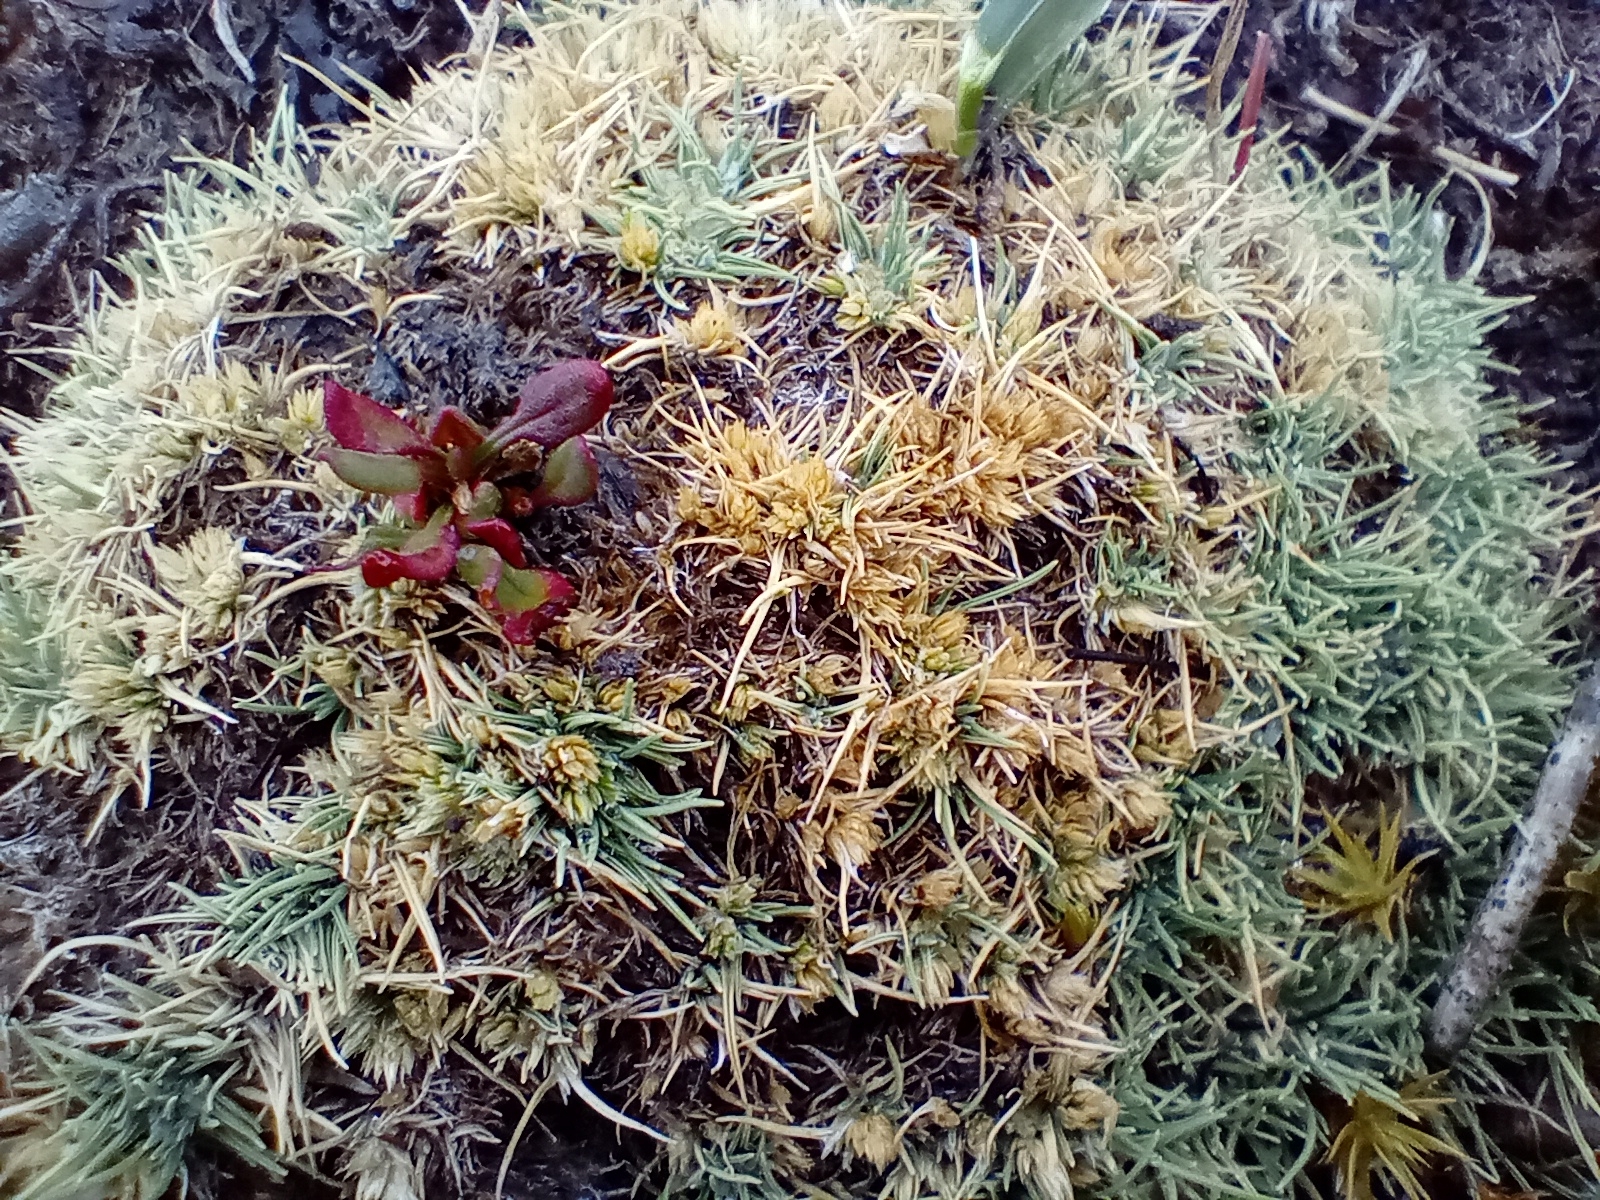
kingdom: Plantae
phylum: Tracheophyta
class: Liliopsida
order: Poales
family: Poaceae
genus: Agrostis
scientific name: Agrostis muscosa
